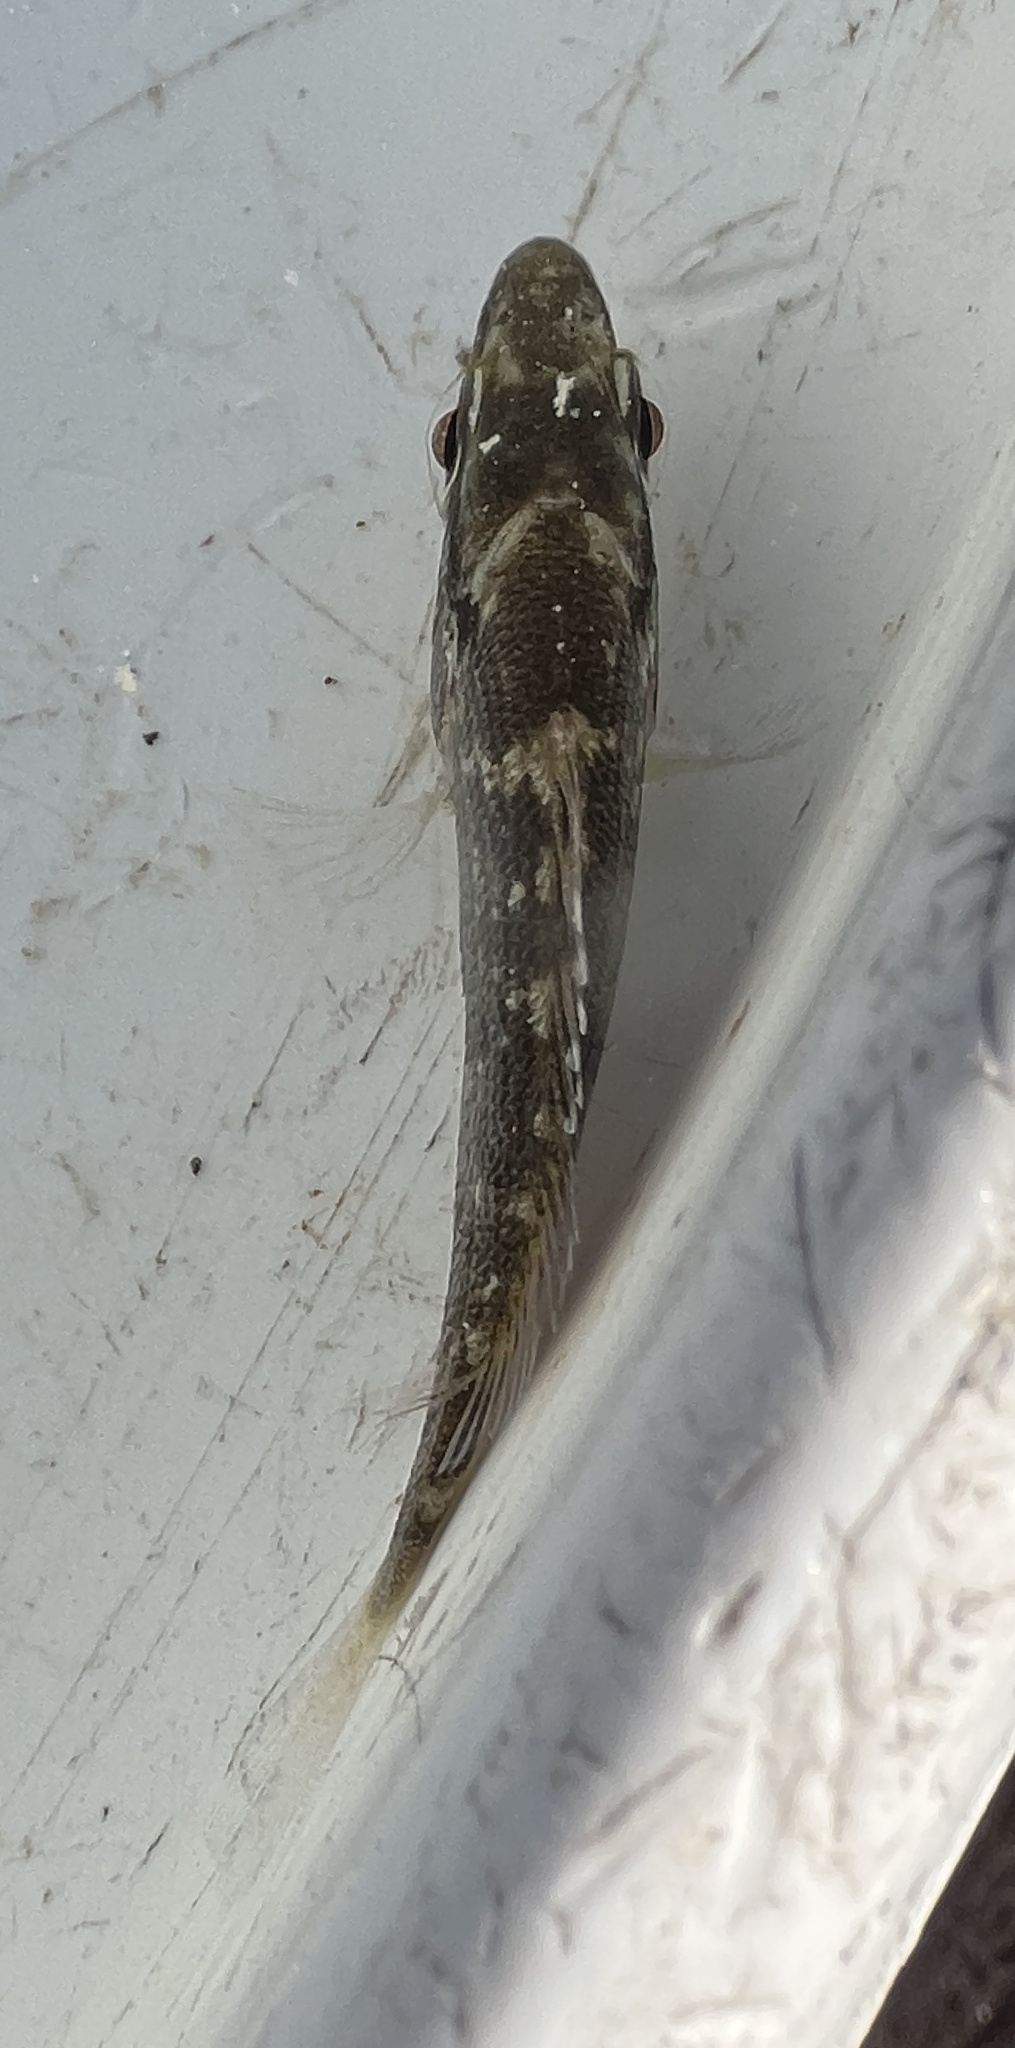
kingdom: Animalia
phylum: Chordata
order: Perciformes
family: Lutjanidae
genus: Lutjanus
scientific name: Lutjanus griseus
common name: Gray snapper
